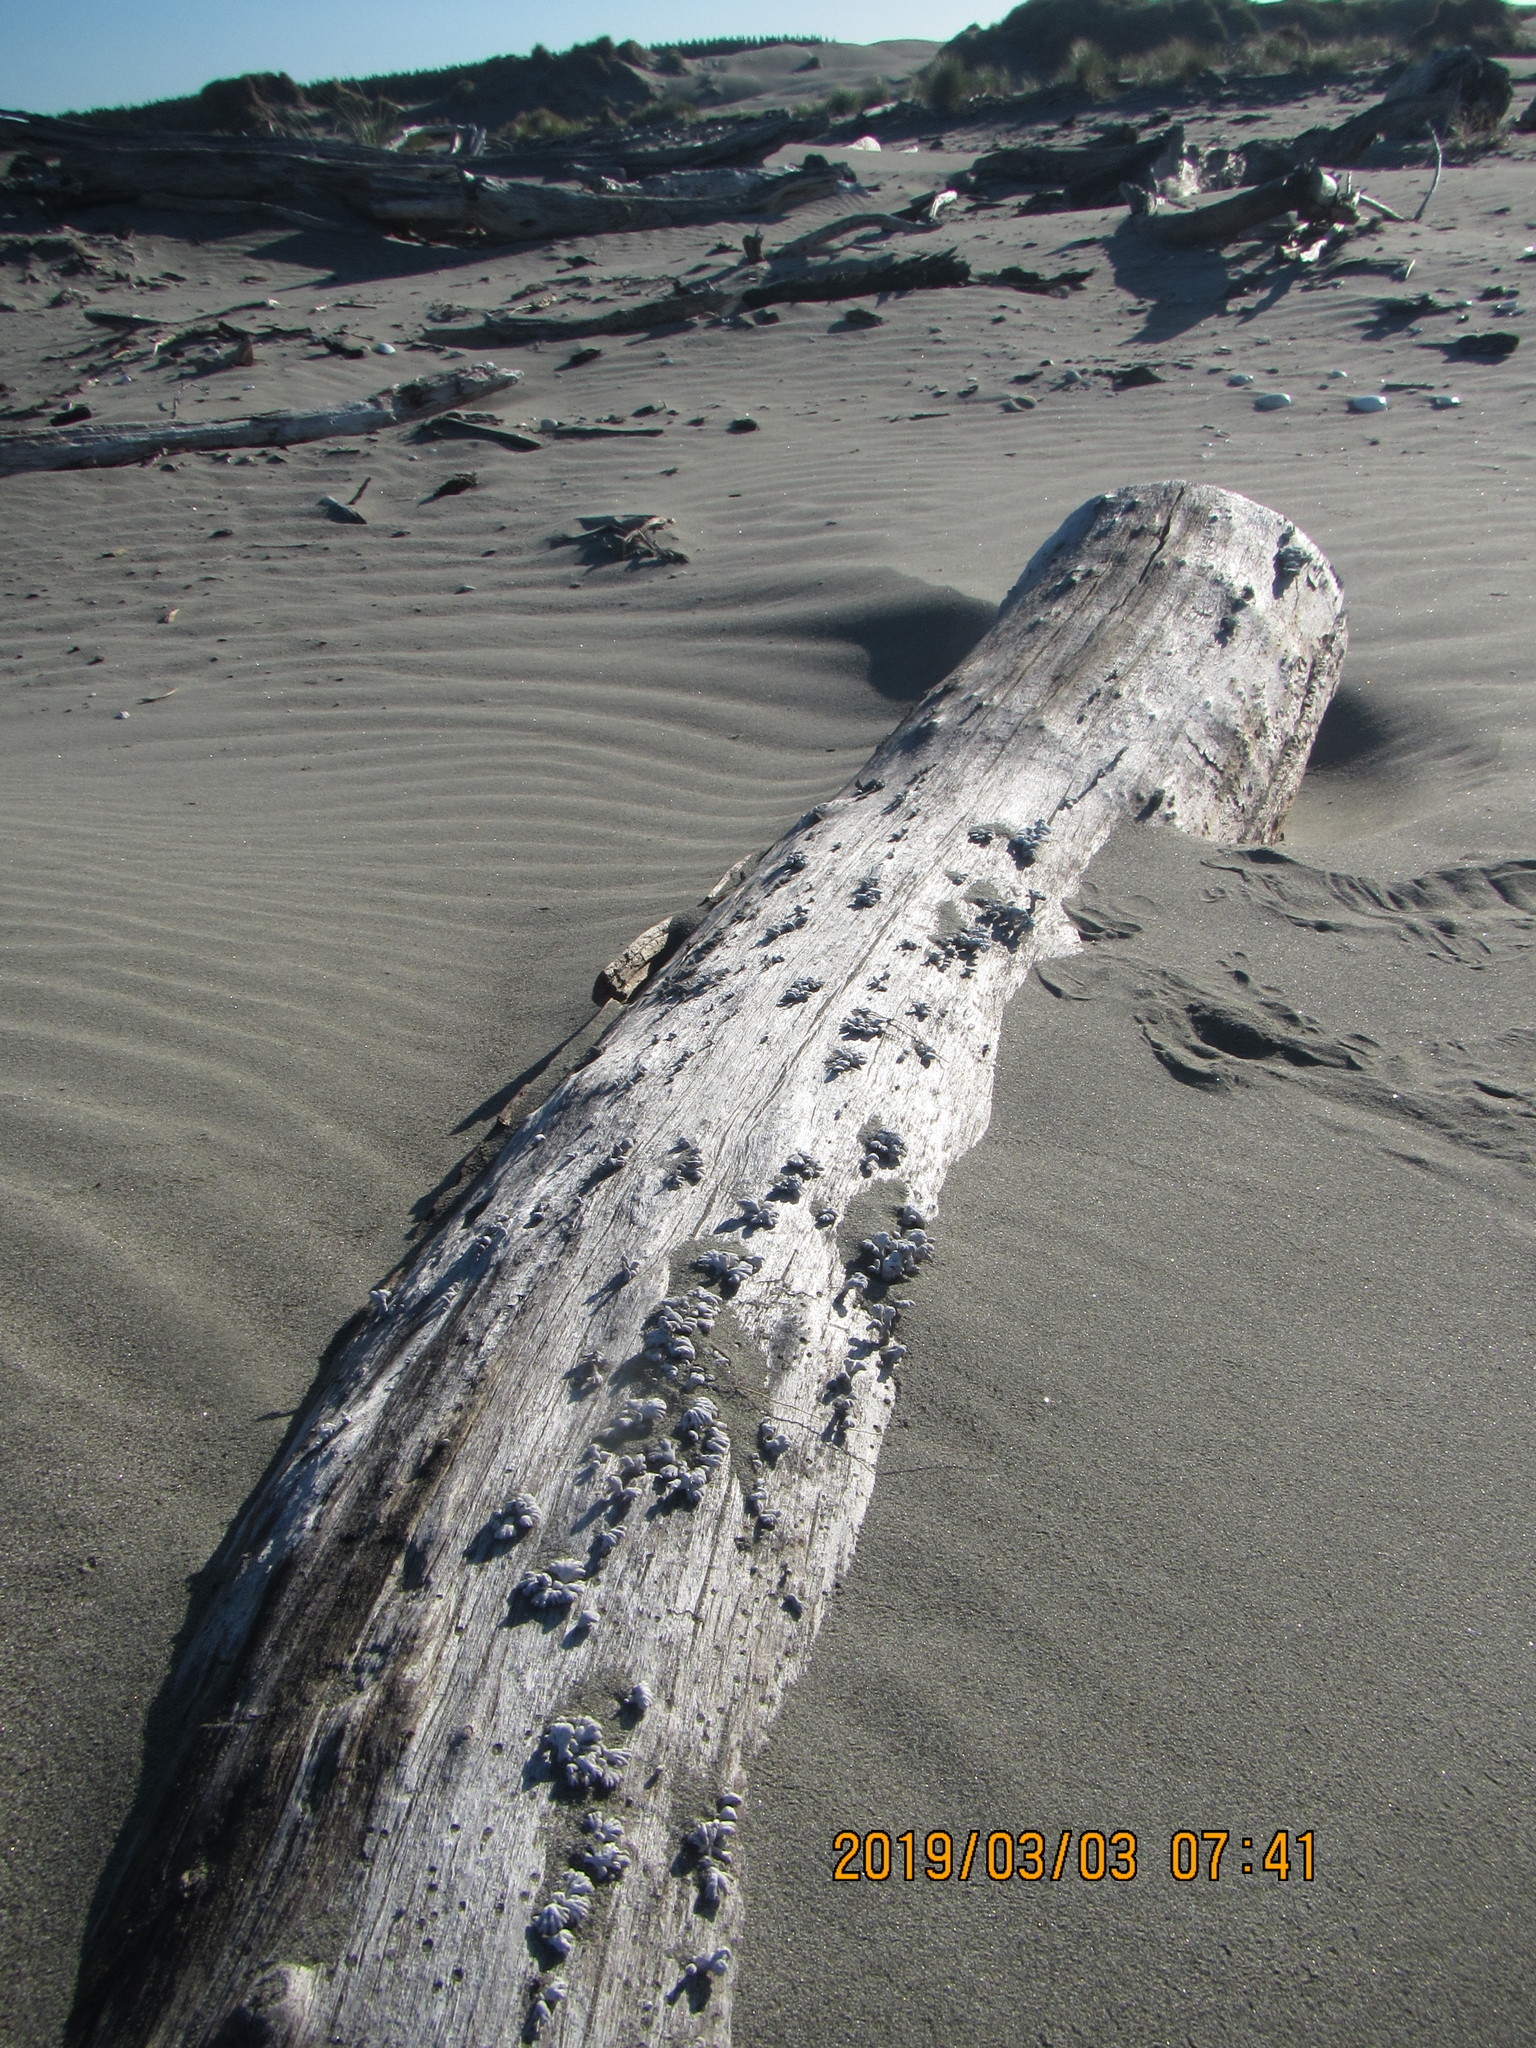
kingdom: Fungi
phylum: Basidiomycota
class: Agaricomycetes
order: Agaricales
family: Schizophyllaceae
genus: Schizophyllum
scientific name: Schizophyllum commune
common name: Common porecrust
